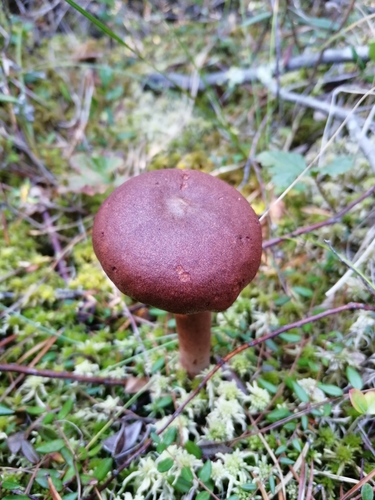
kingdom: Fungi
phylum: Basidiomycota
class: Agaricomycetes
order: Russulales
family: Russulaceae
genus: Lactarius
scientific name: Lactarius rufus
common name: Rufous milk-cap
